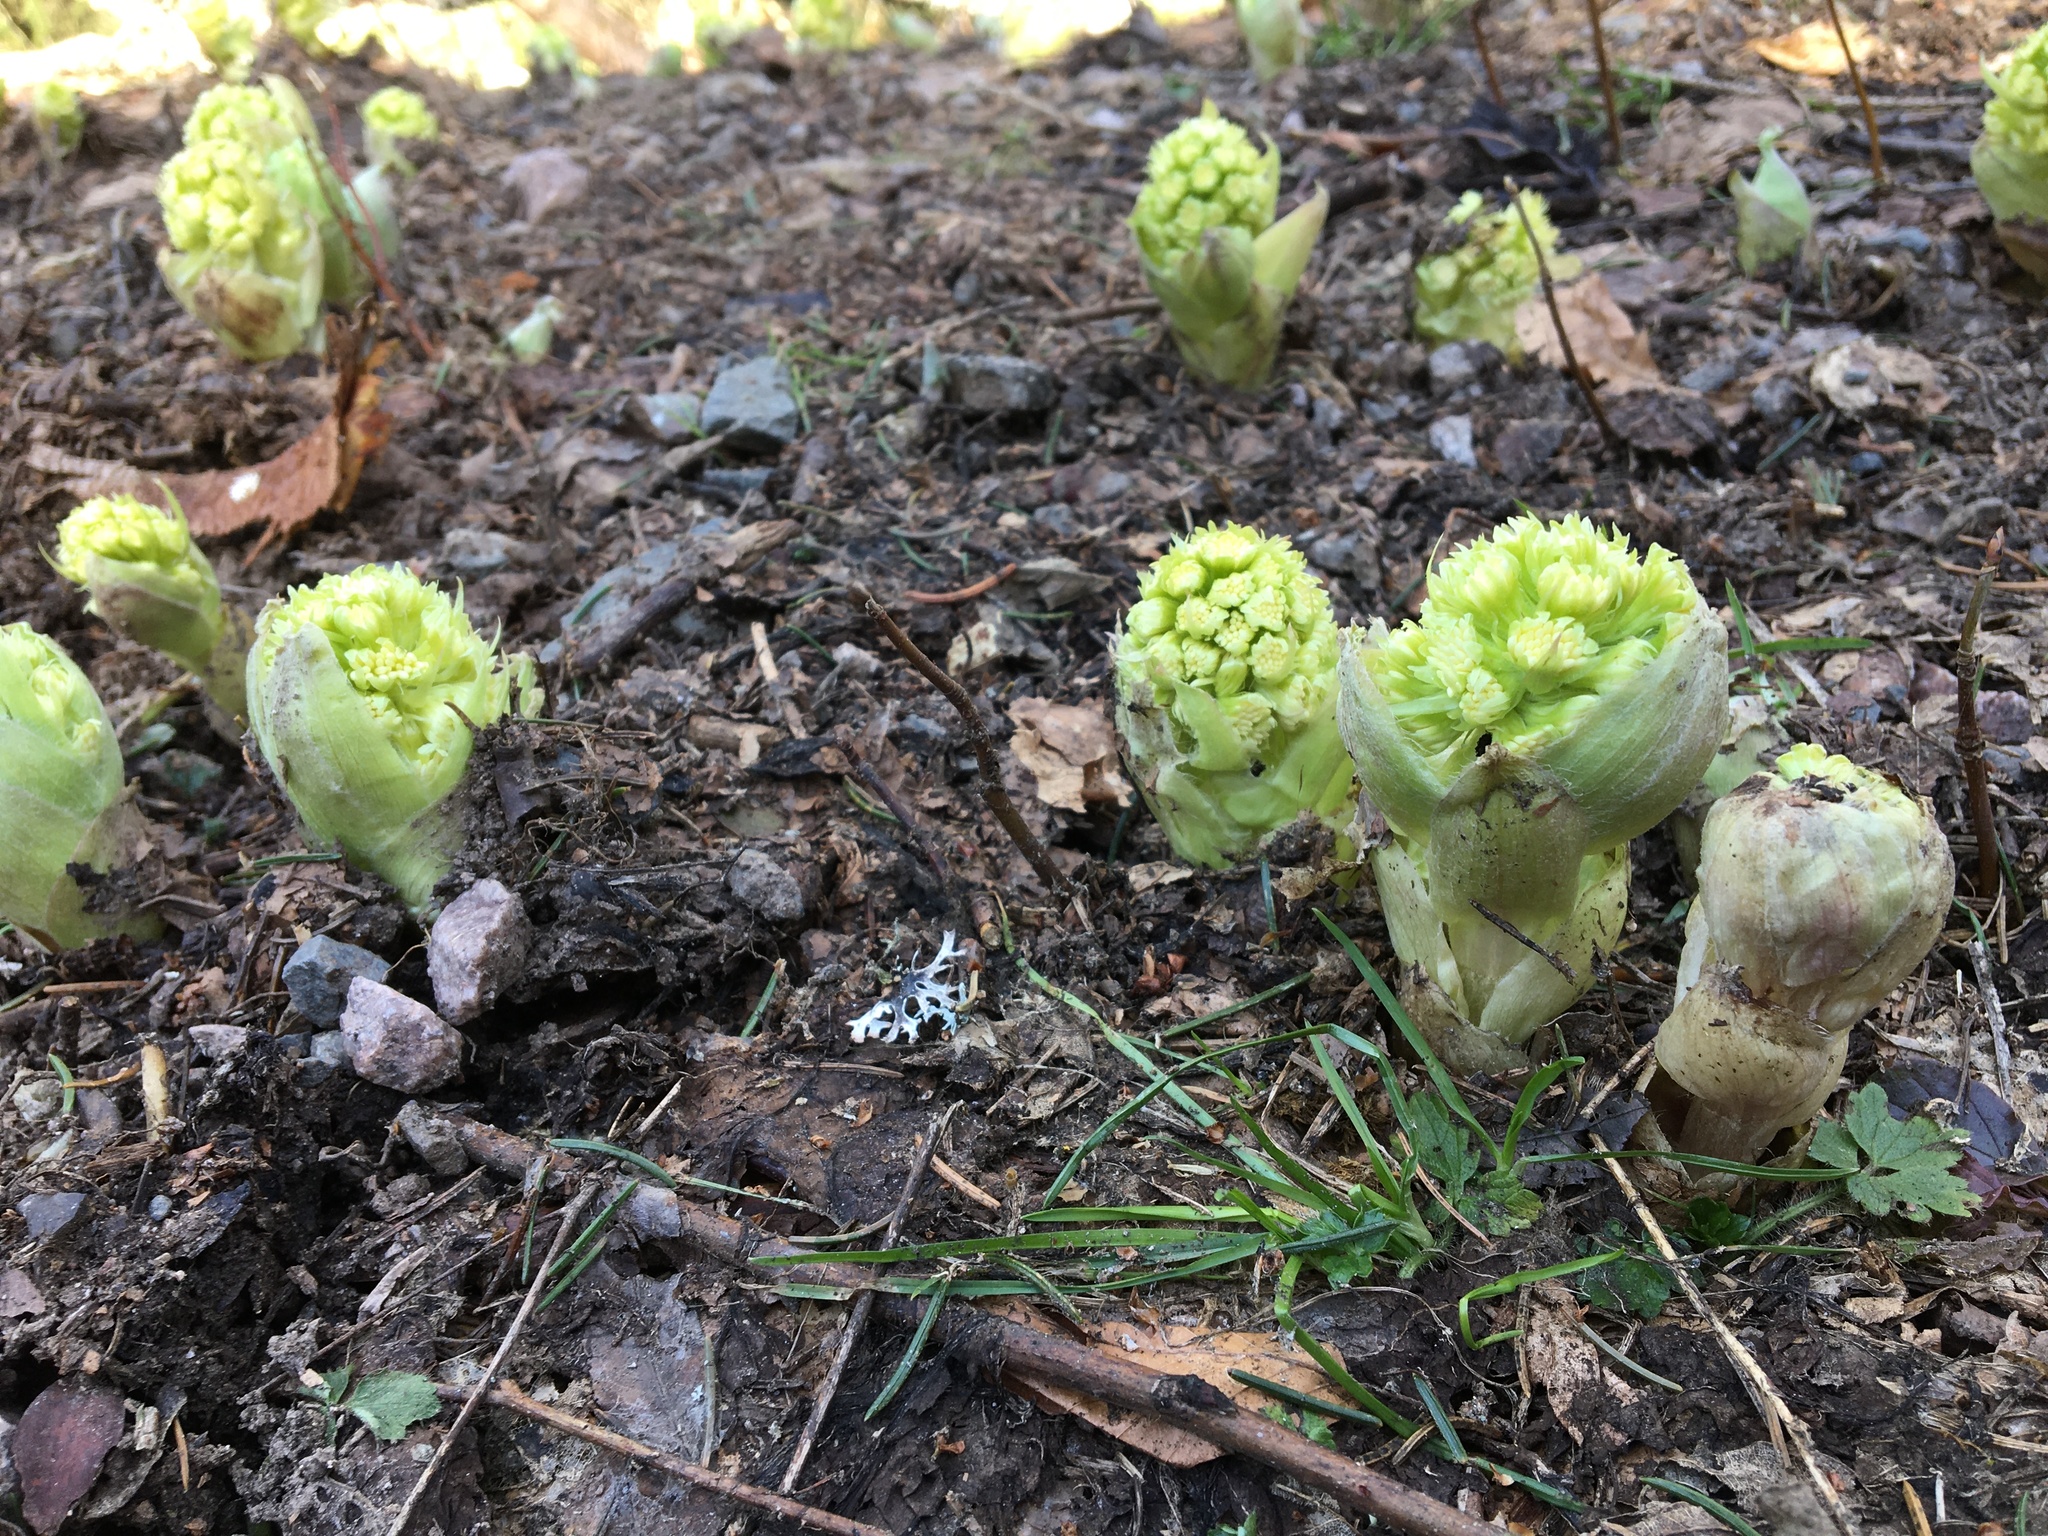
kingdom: Plantae
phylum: Tracheophyta
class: Magnoliopsida
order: Asterales
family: Asteraceae
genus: Petasites
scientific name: Petasites albus
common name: White butterbur
